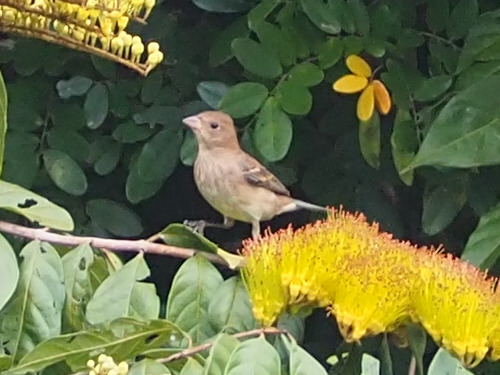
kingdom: Animalia
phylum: Chordata
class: Aves
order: Passeriformes
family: Cardinalidae
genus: Passerina
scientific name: Passerina cyanea
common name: Indigo bunting
